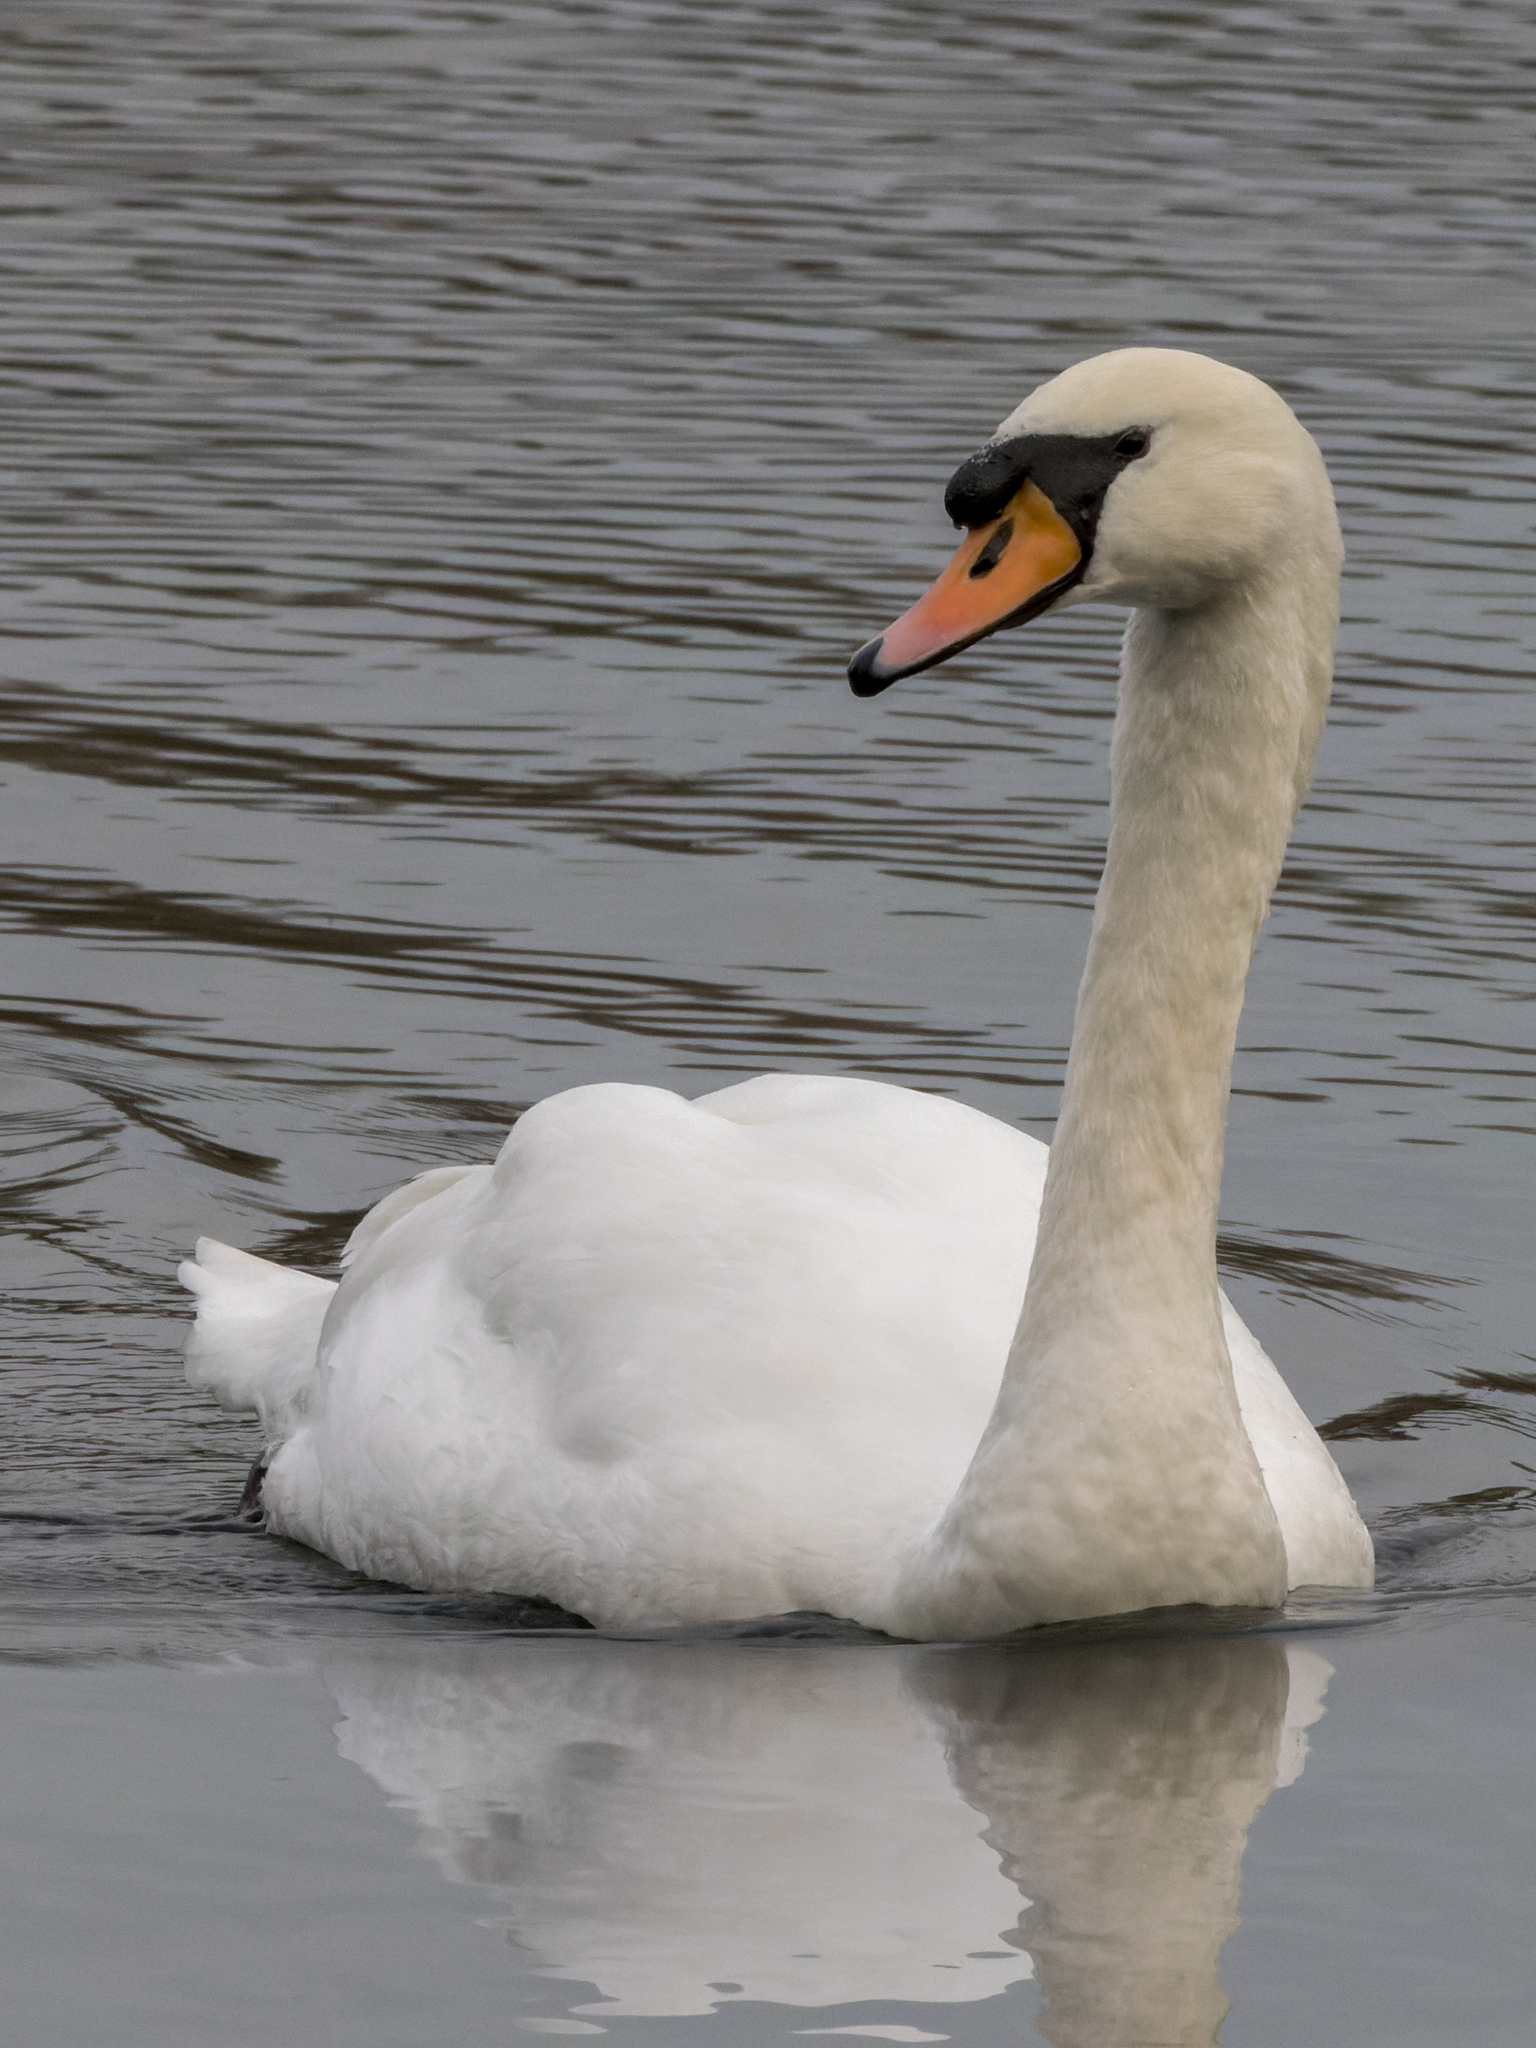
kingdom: Animalia
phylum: Chordata
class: Aves
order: Anseriformes
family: Anatidae
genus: Cygnus
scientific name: Cygnus olor
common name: Mute swan
